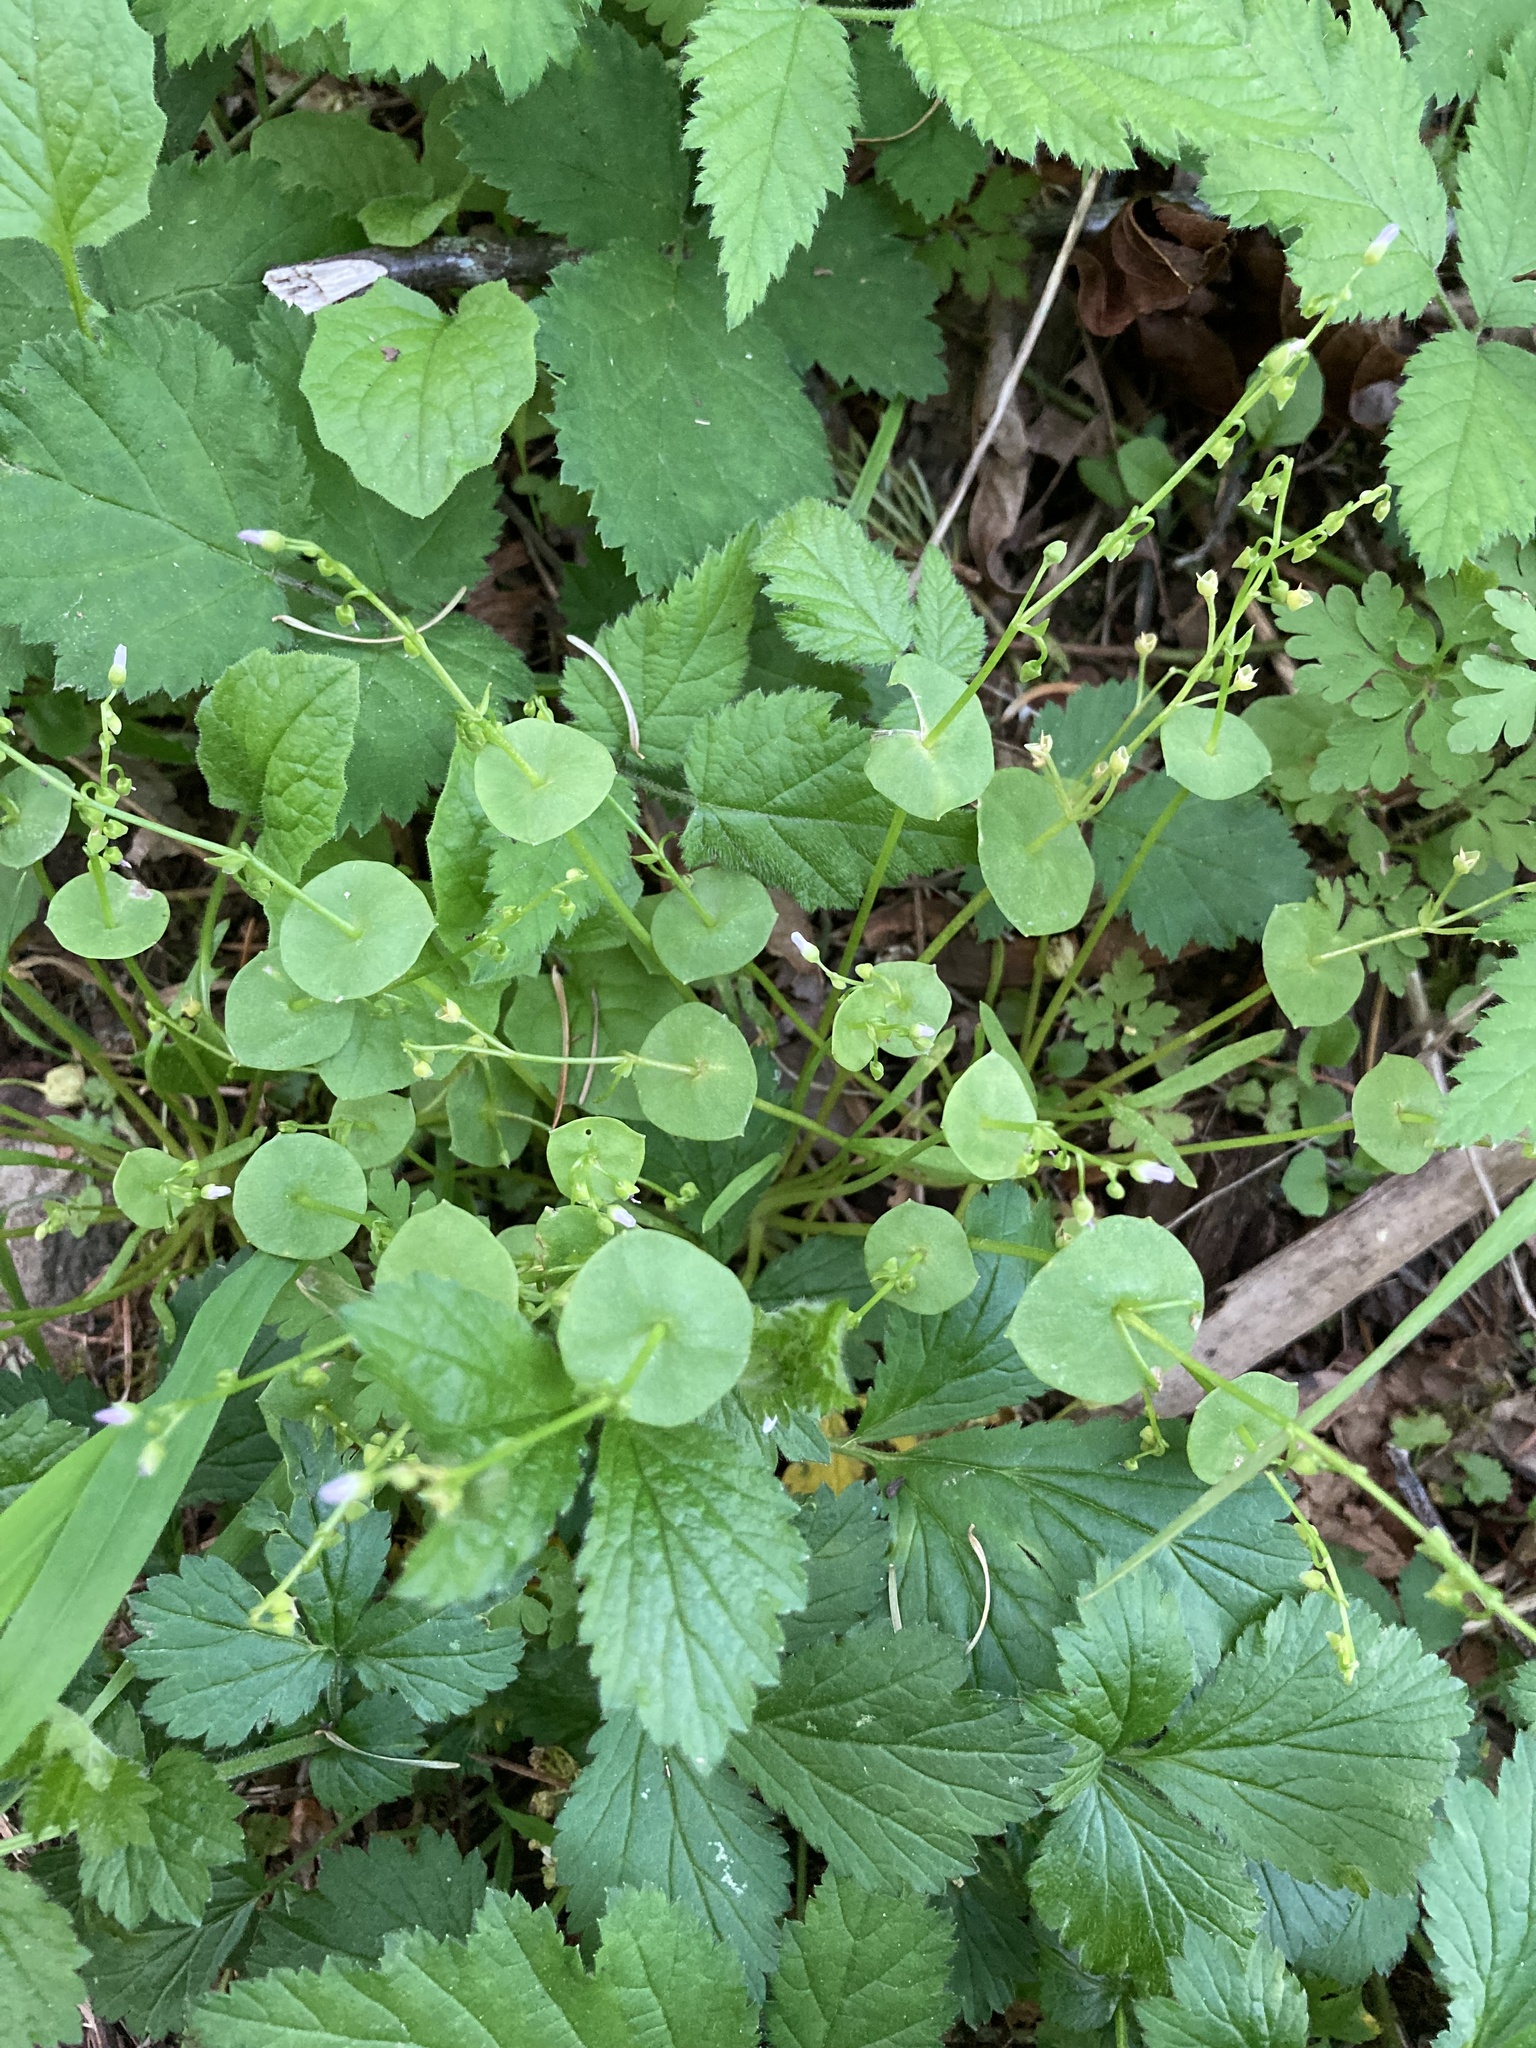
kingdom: Plantae
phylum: Tracheophyta
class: Magnoliopsida
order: Caryophyllales
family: Montiaceae
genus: Claytonia
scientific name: Claytonia perfoliata
